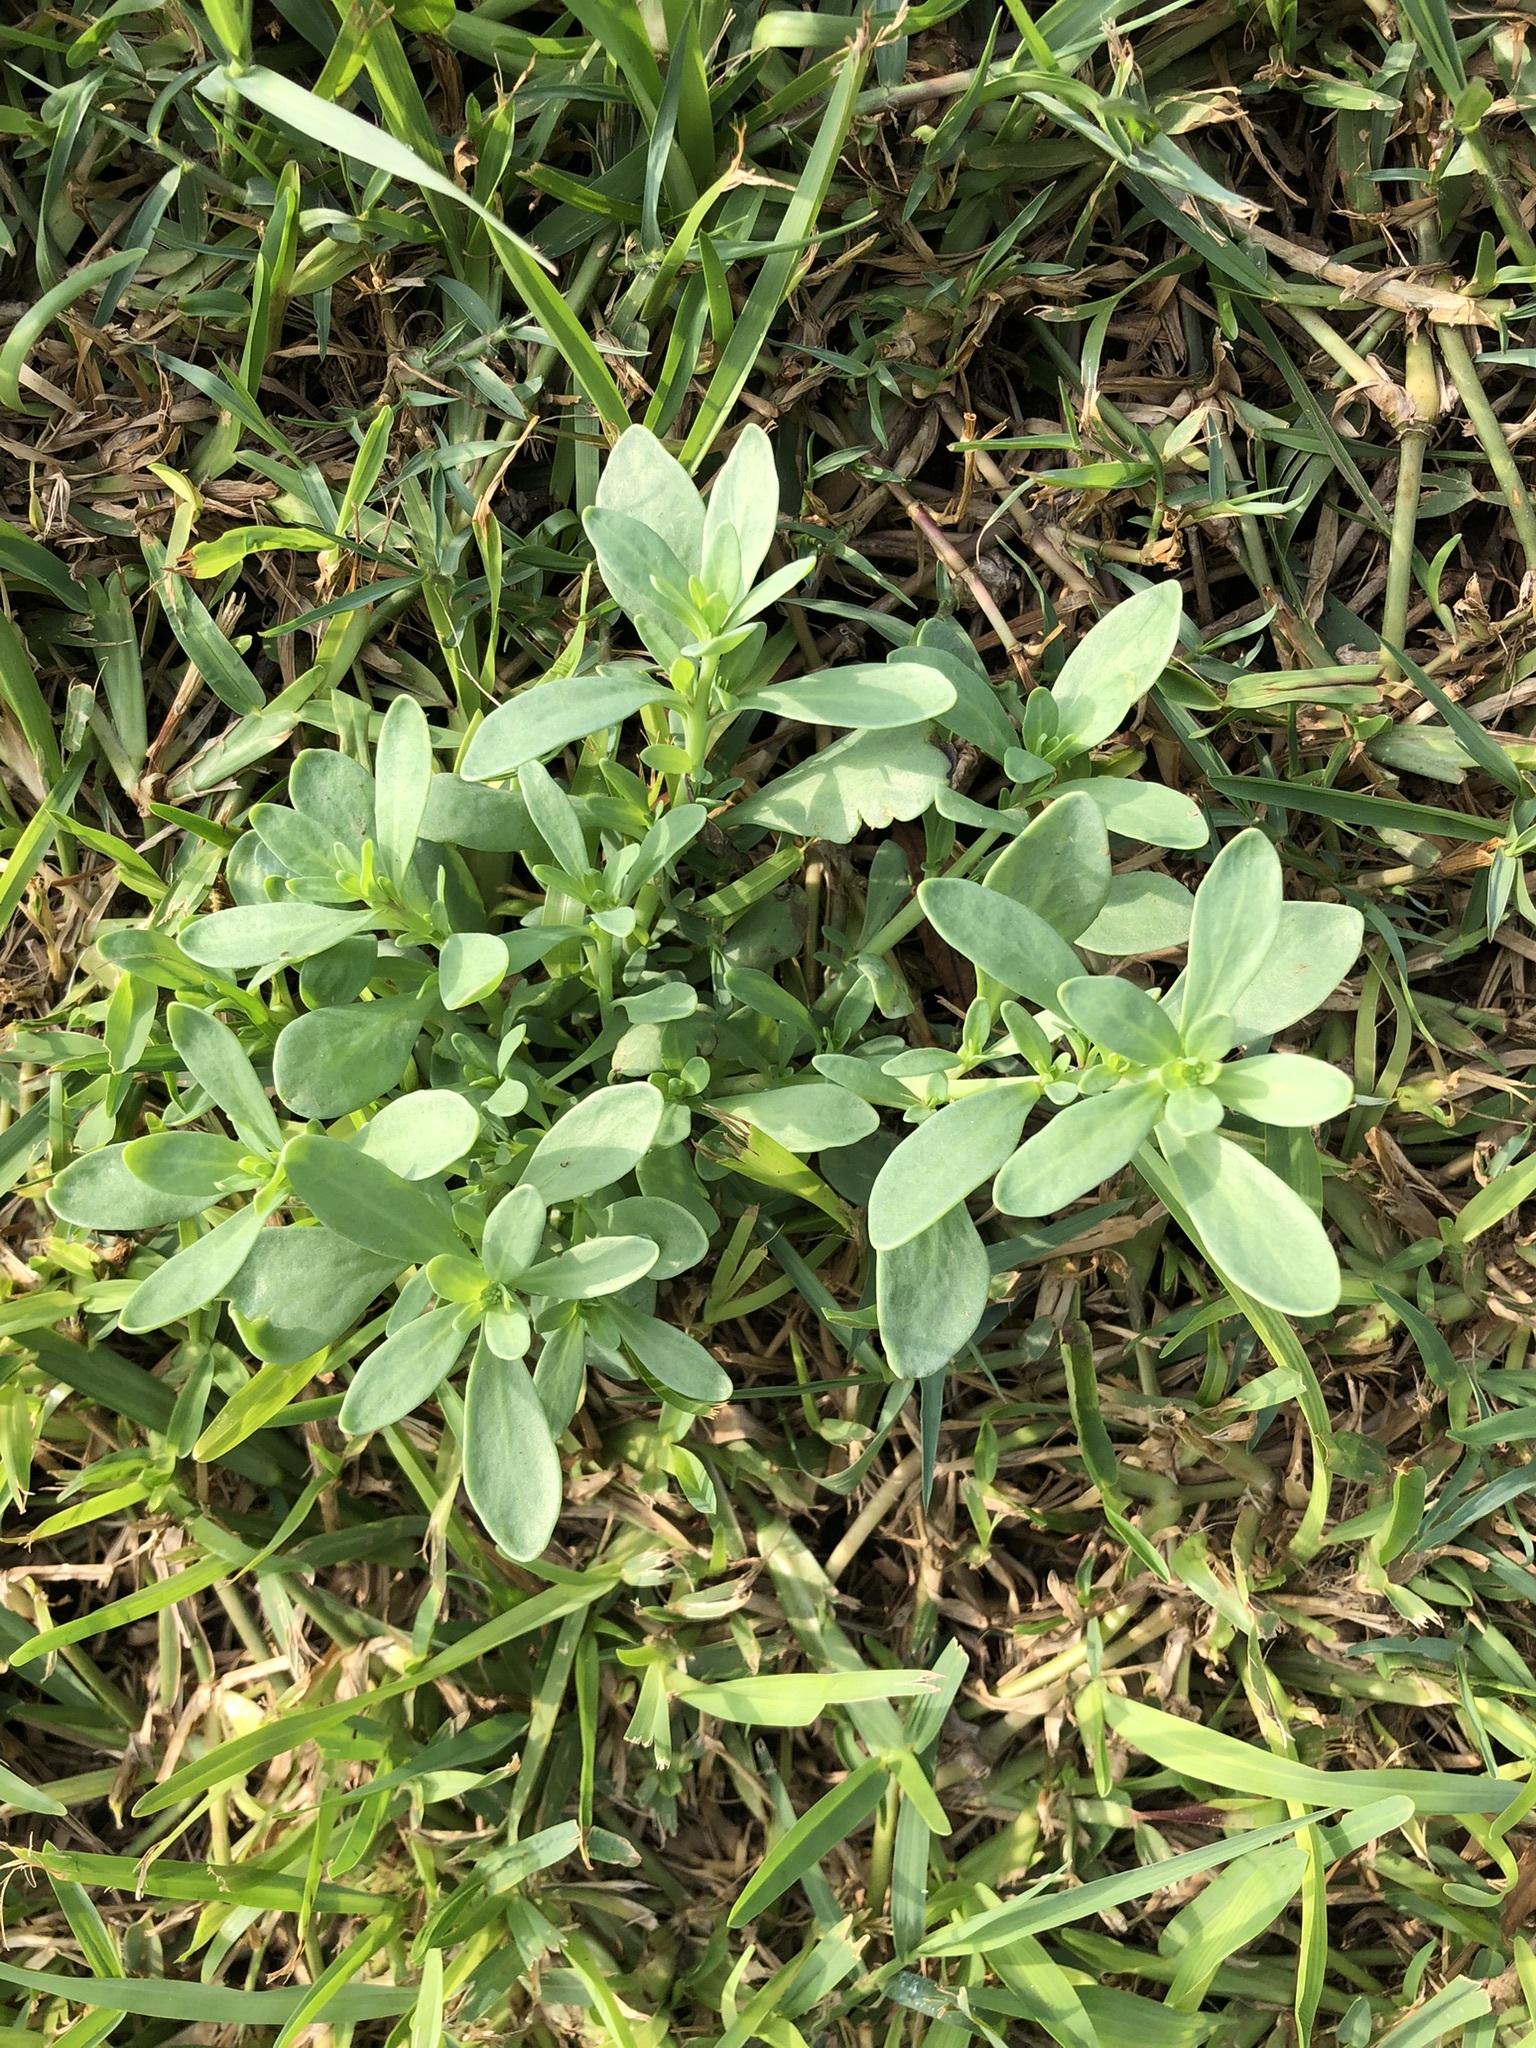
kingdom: Plantae
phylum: Tracheophyta
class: Magnoliopsida
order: Boraginales
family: Heliotropiaceae
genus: Heliotropium
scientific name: Heliotropium curassavicum
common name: Seaside heliotrope
